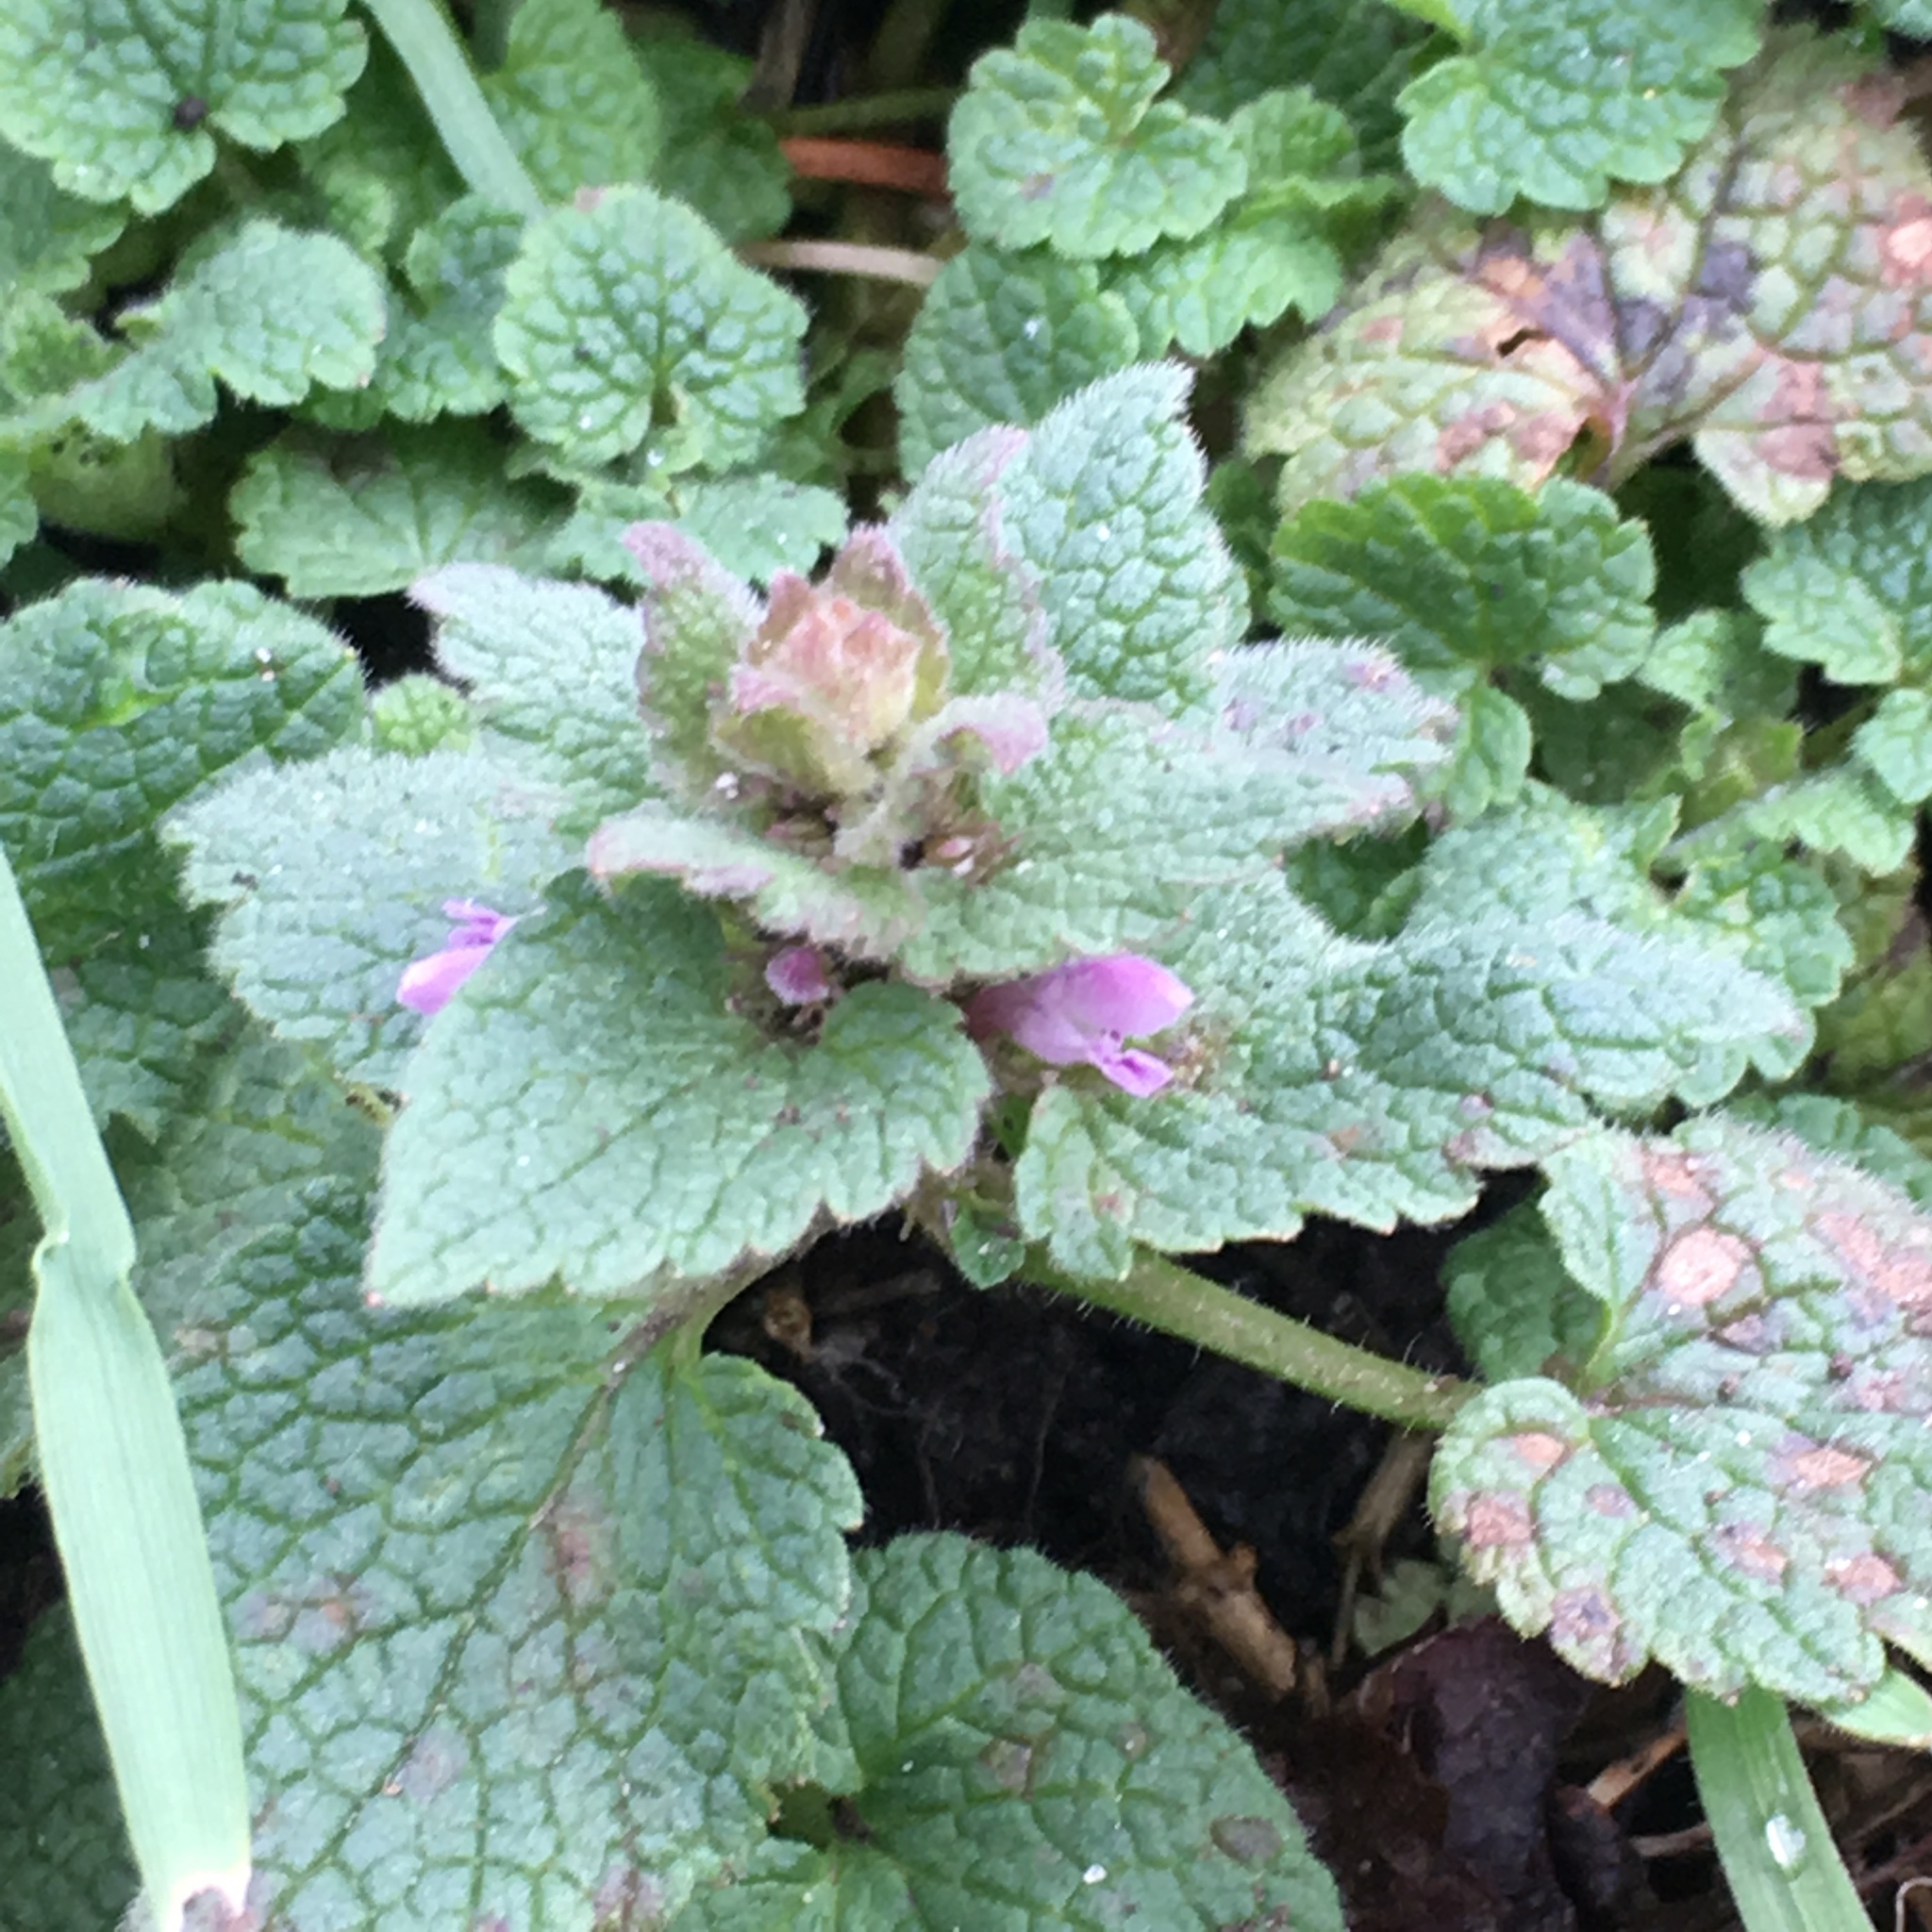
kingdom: Plantae
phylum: Tracheophyta
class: Magnoliopsida
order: Lamiales
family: Lamiaceae
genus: Lamium
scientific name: Lamium purpureum
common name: Red dead-nettle
